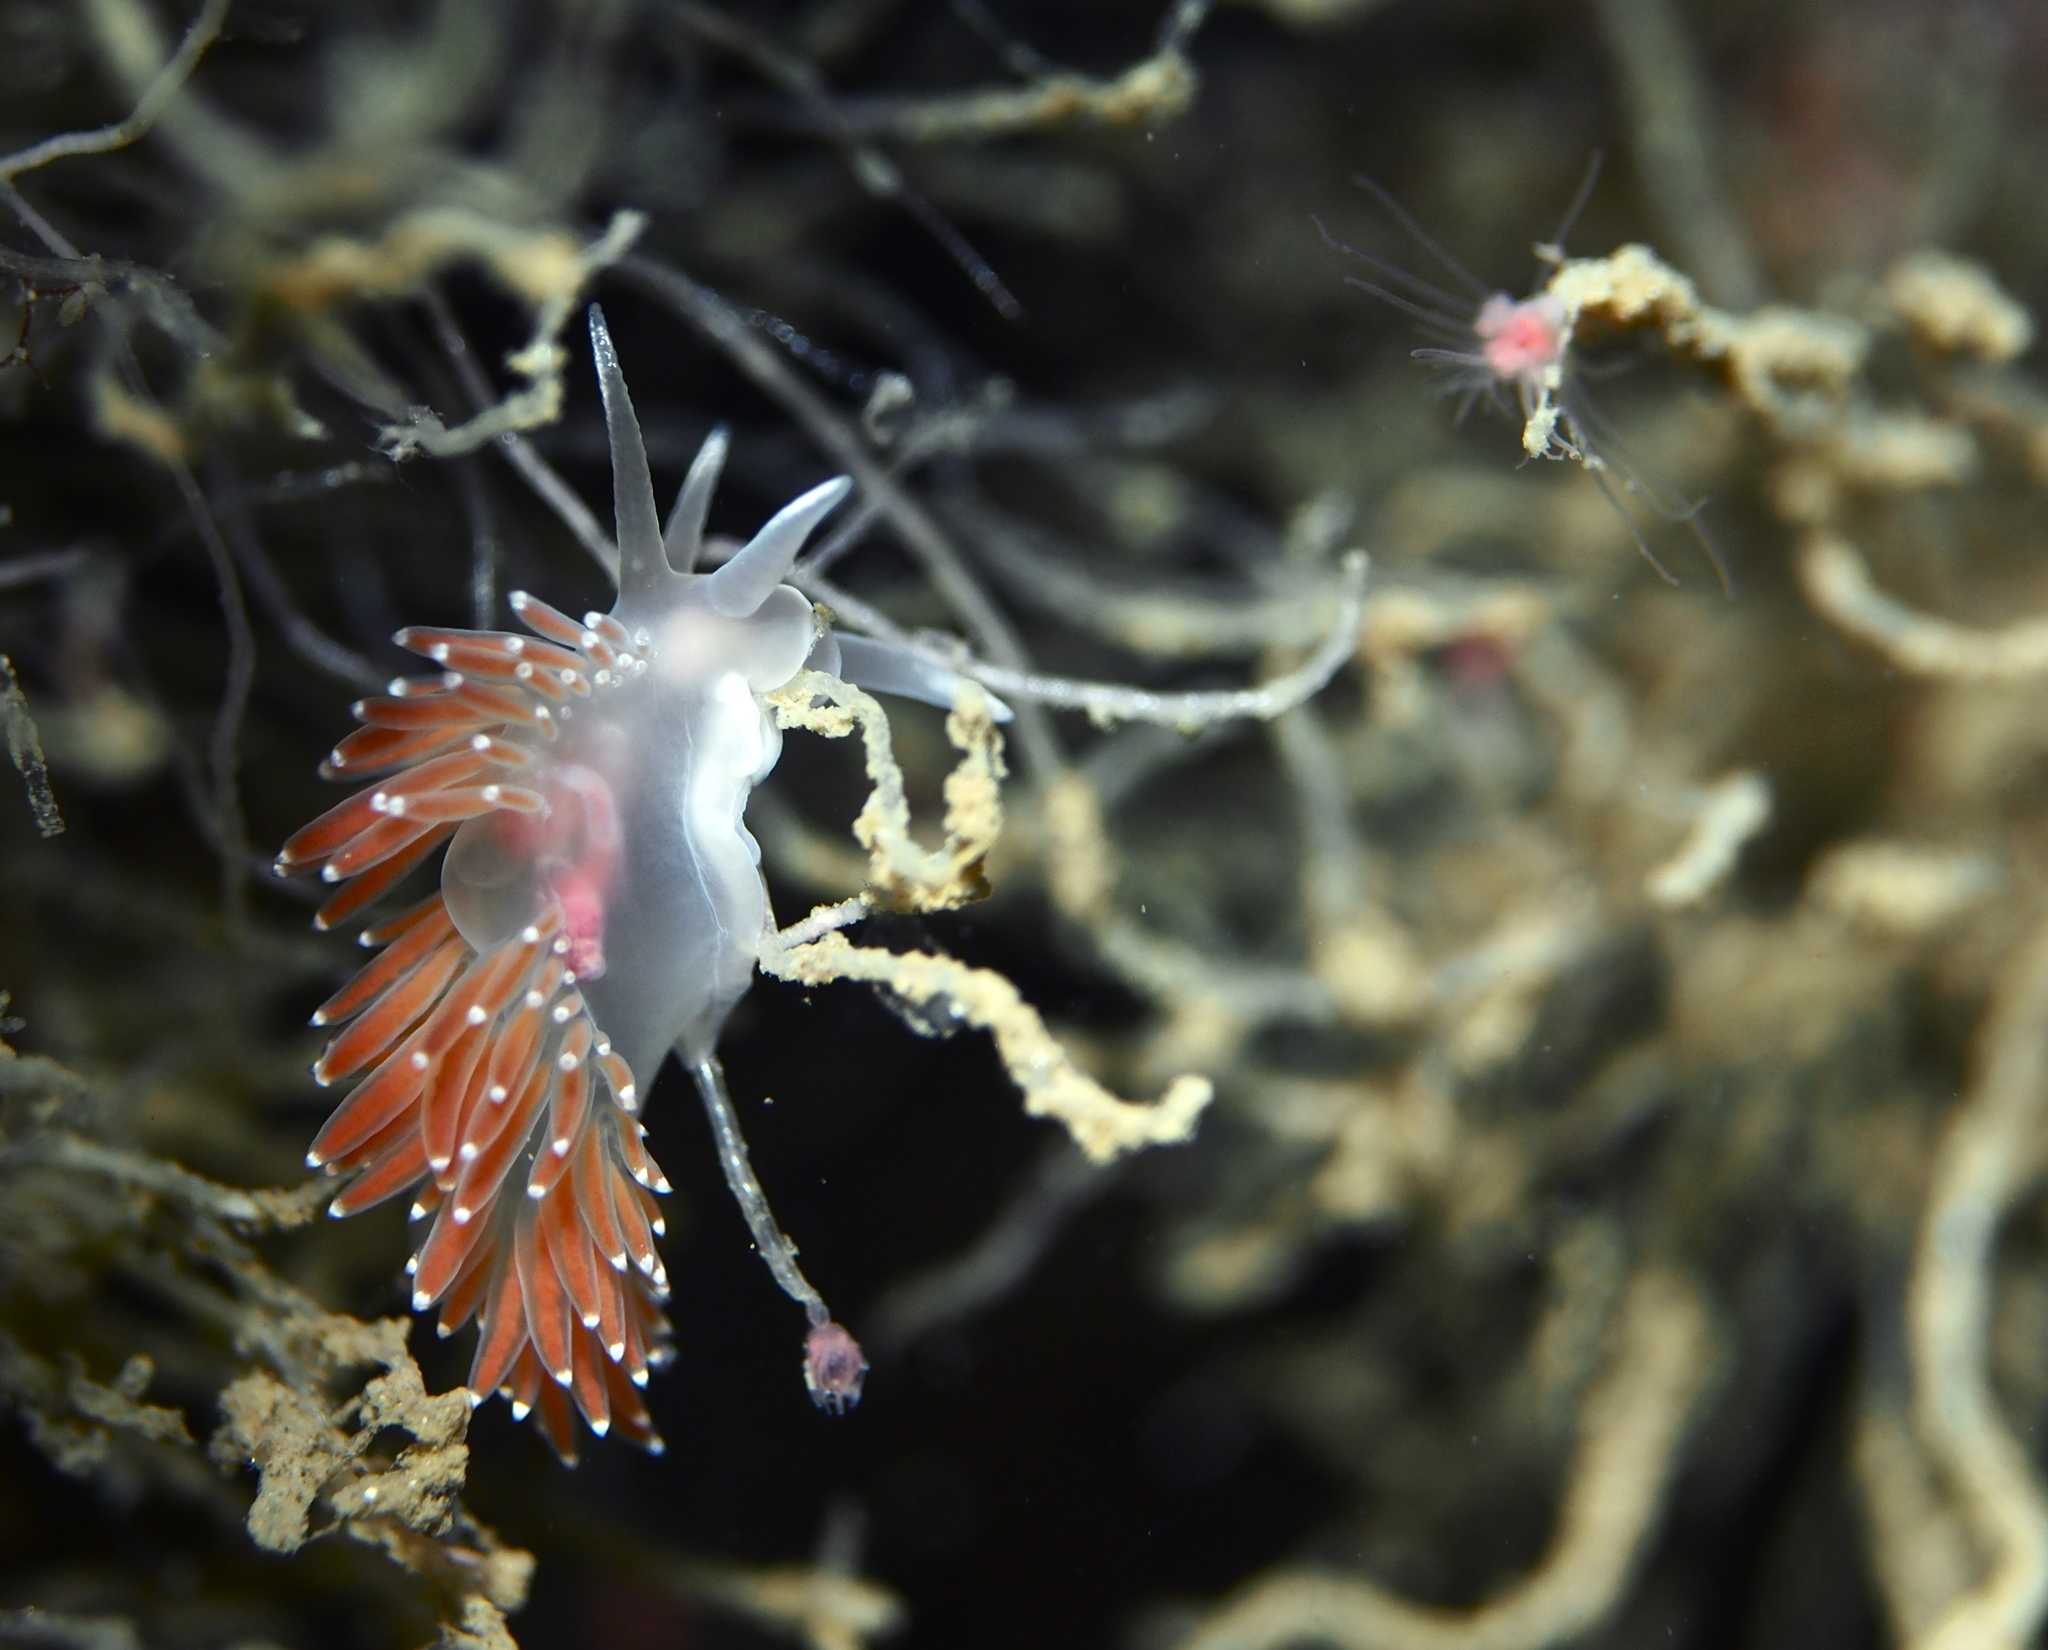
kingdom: Animalia
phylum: Mollusca
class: Gastropoda
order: Nudibranchia
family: Coryphellidae
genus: Coryphella
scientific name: Coryphella verrucosa
